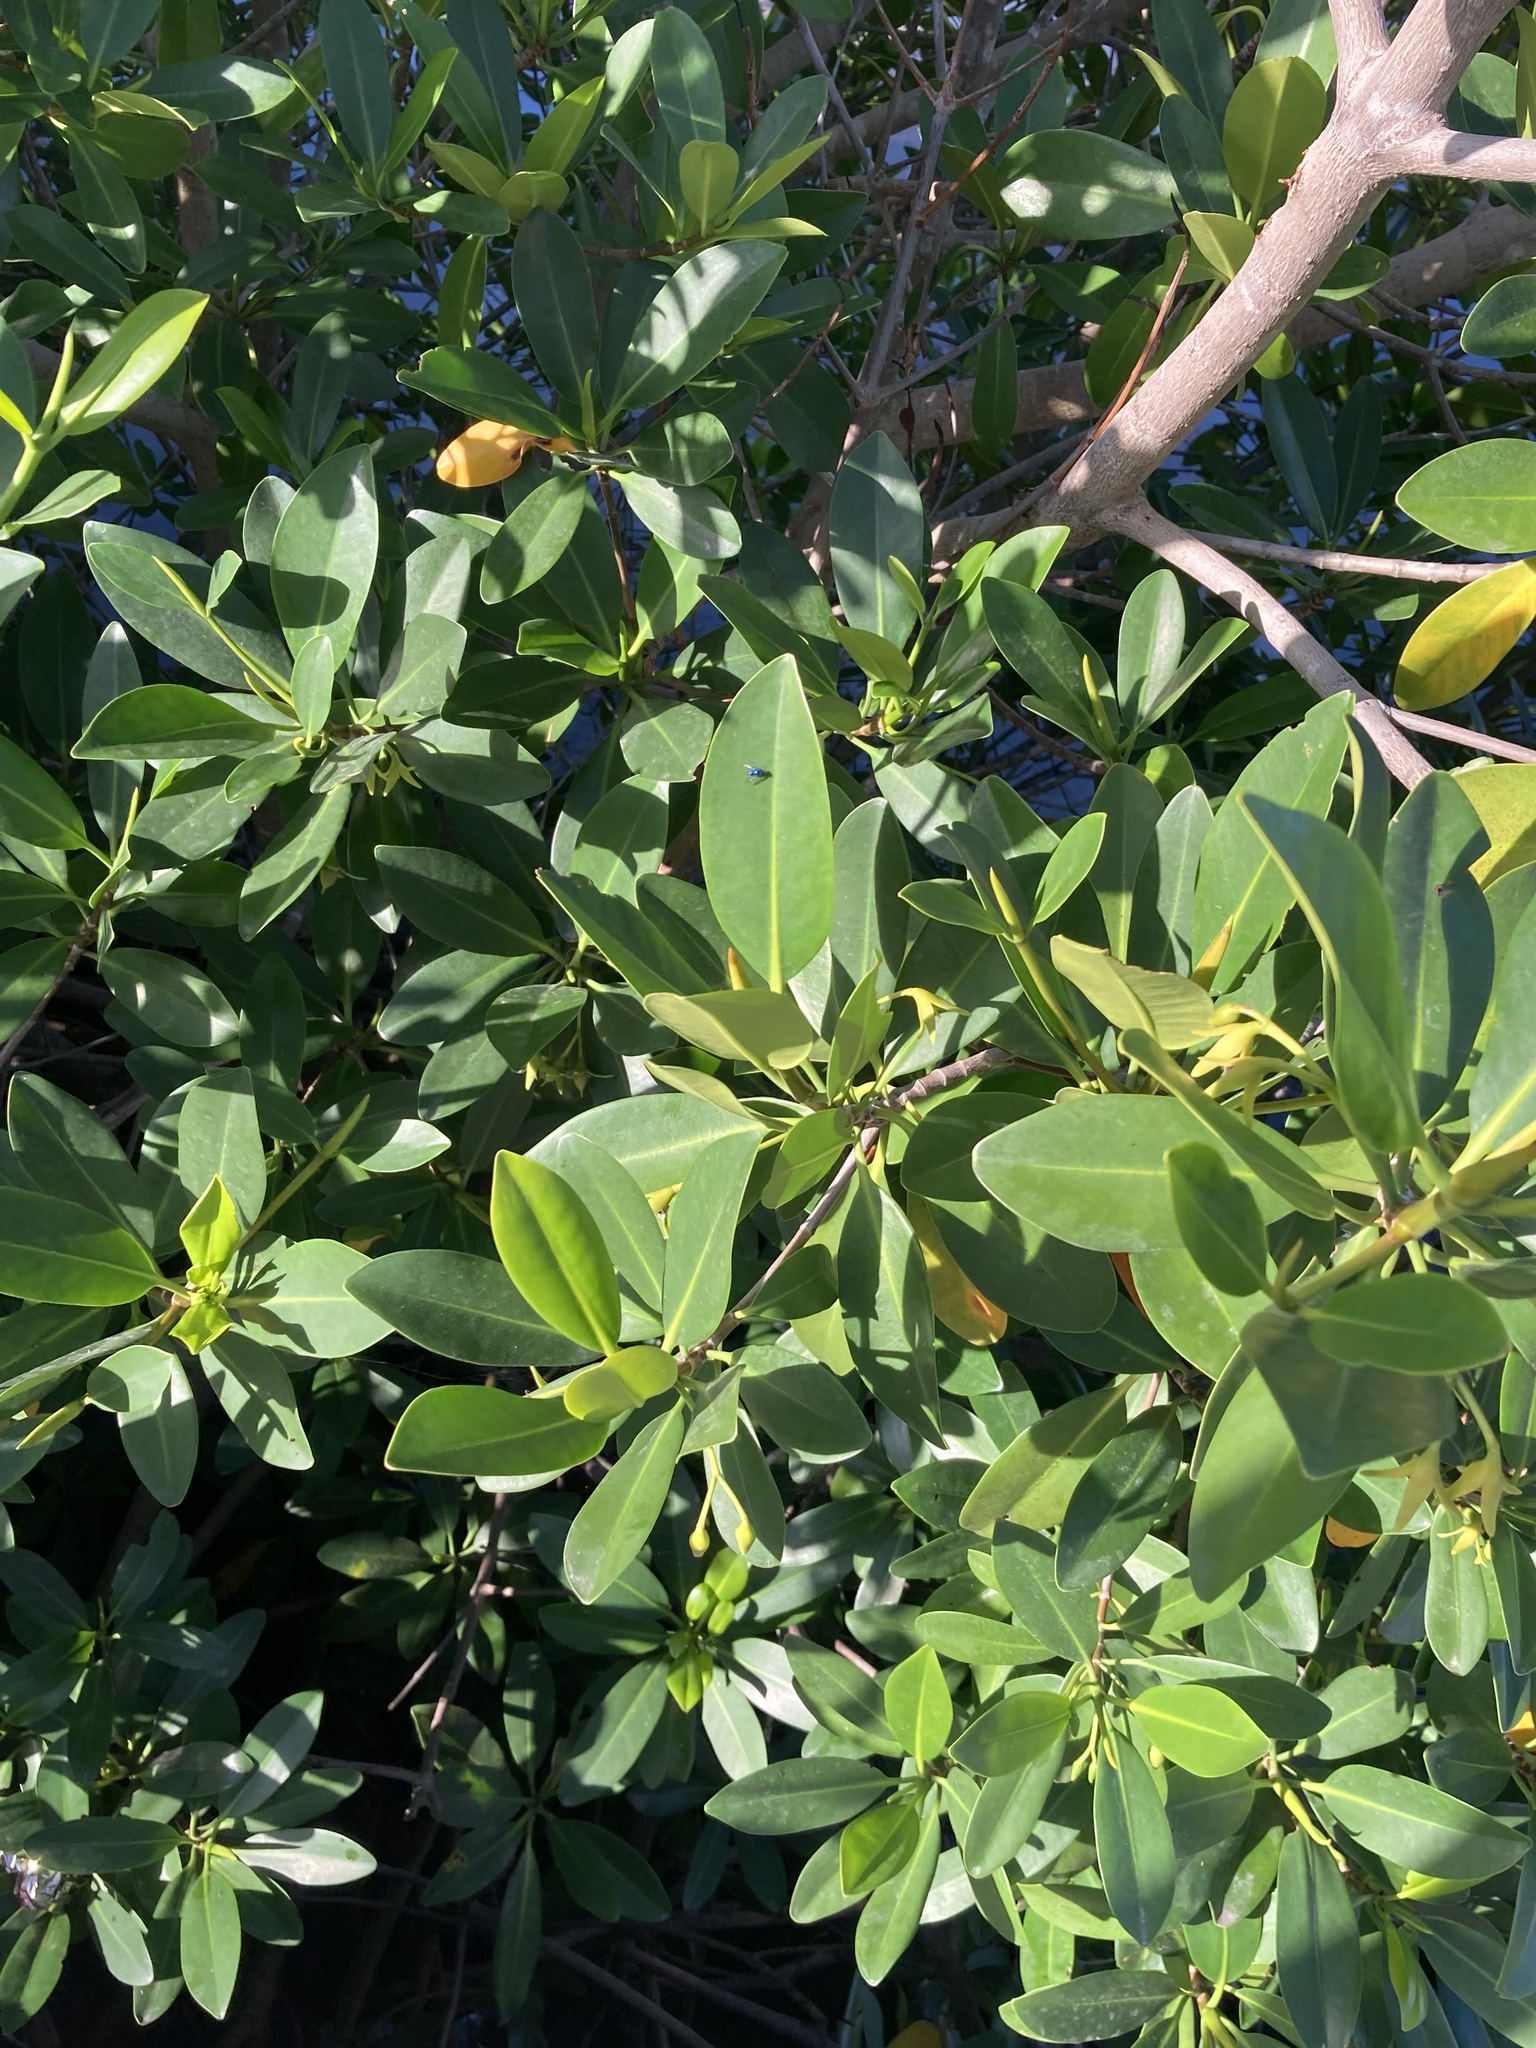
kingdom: Plantae
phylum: Tracheophyta
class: Magnoliopsida
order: Malpighiales
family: Rhizophoraceae
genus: Rhizophora
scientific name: Rhizophora mangle
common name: Red mangrove
